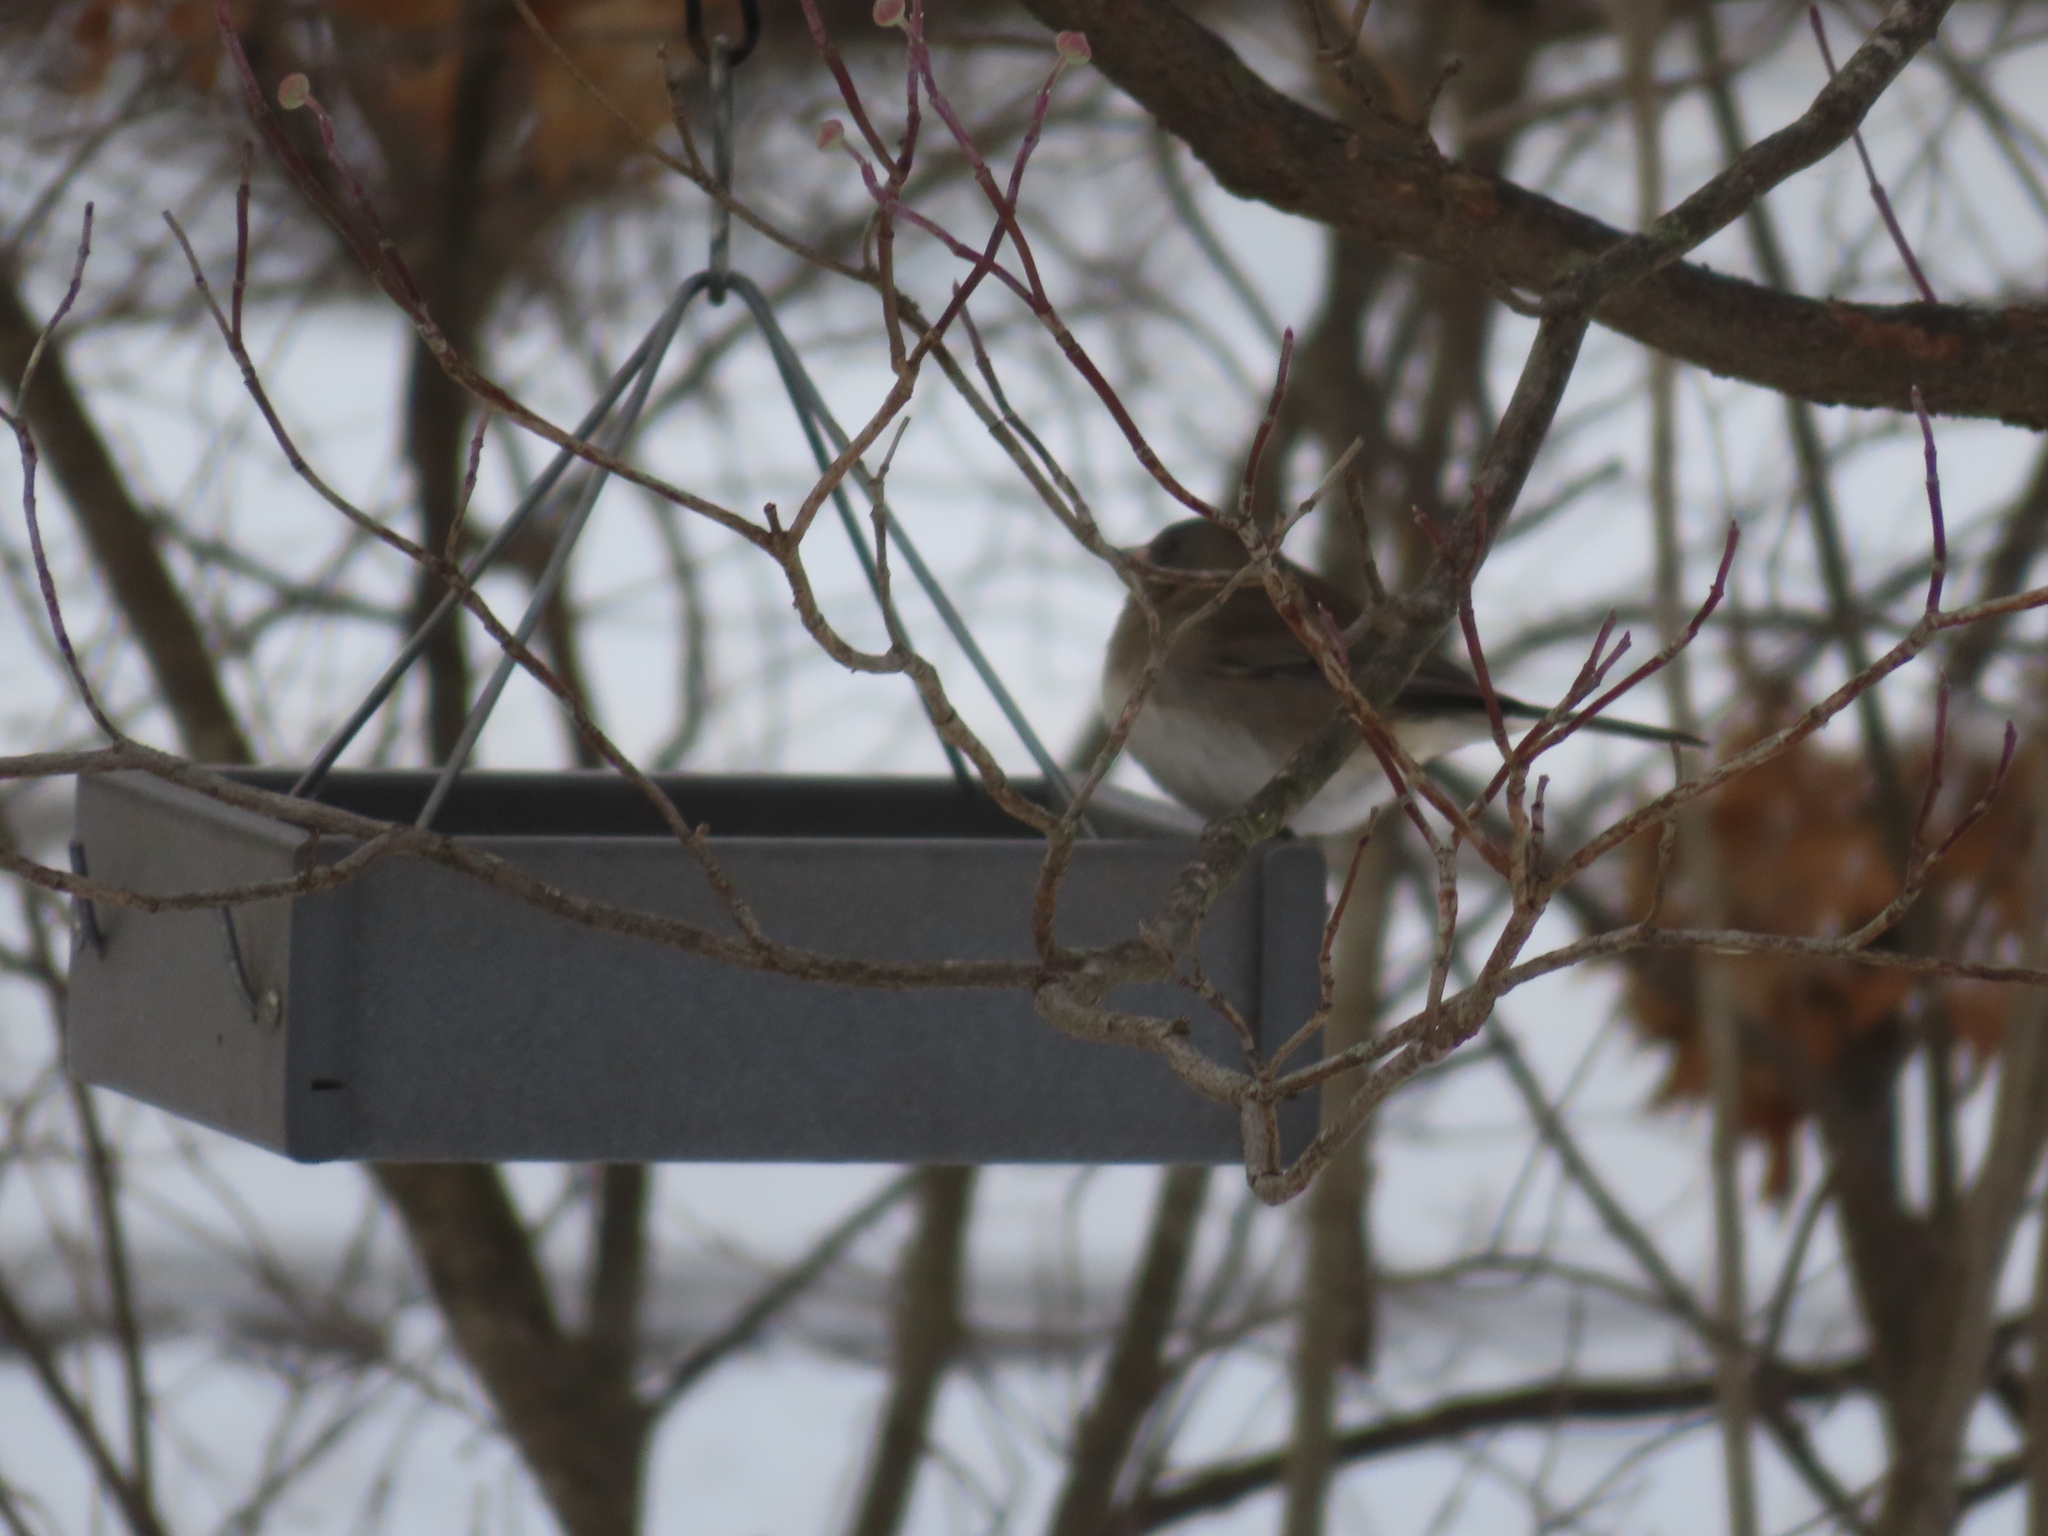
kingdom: Animalia
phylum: Chordata
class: Aves
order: Passeriformes
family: Passerellidae
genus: Junco
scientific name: Junco hyemalis
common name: Dark-eyed junco
